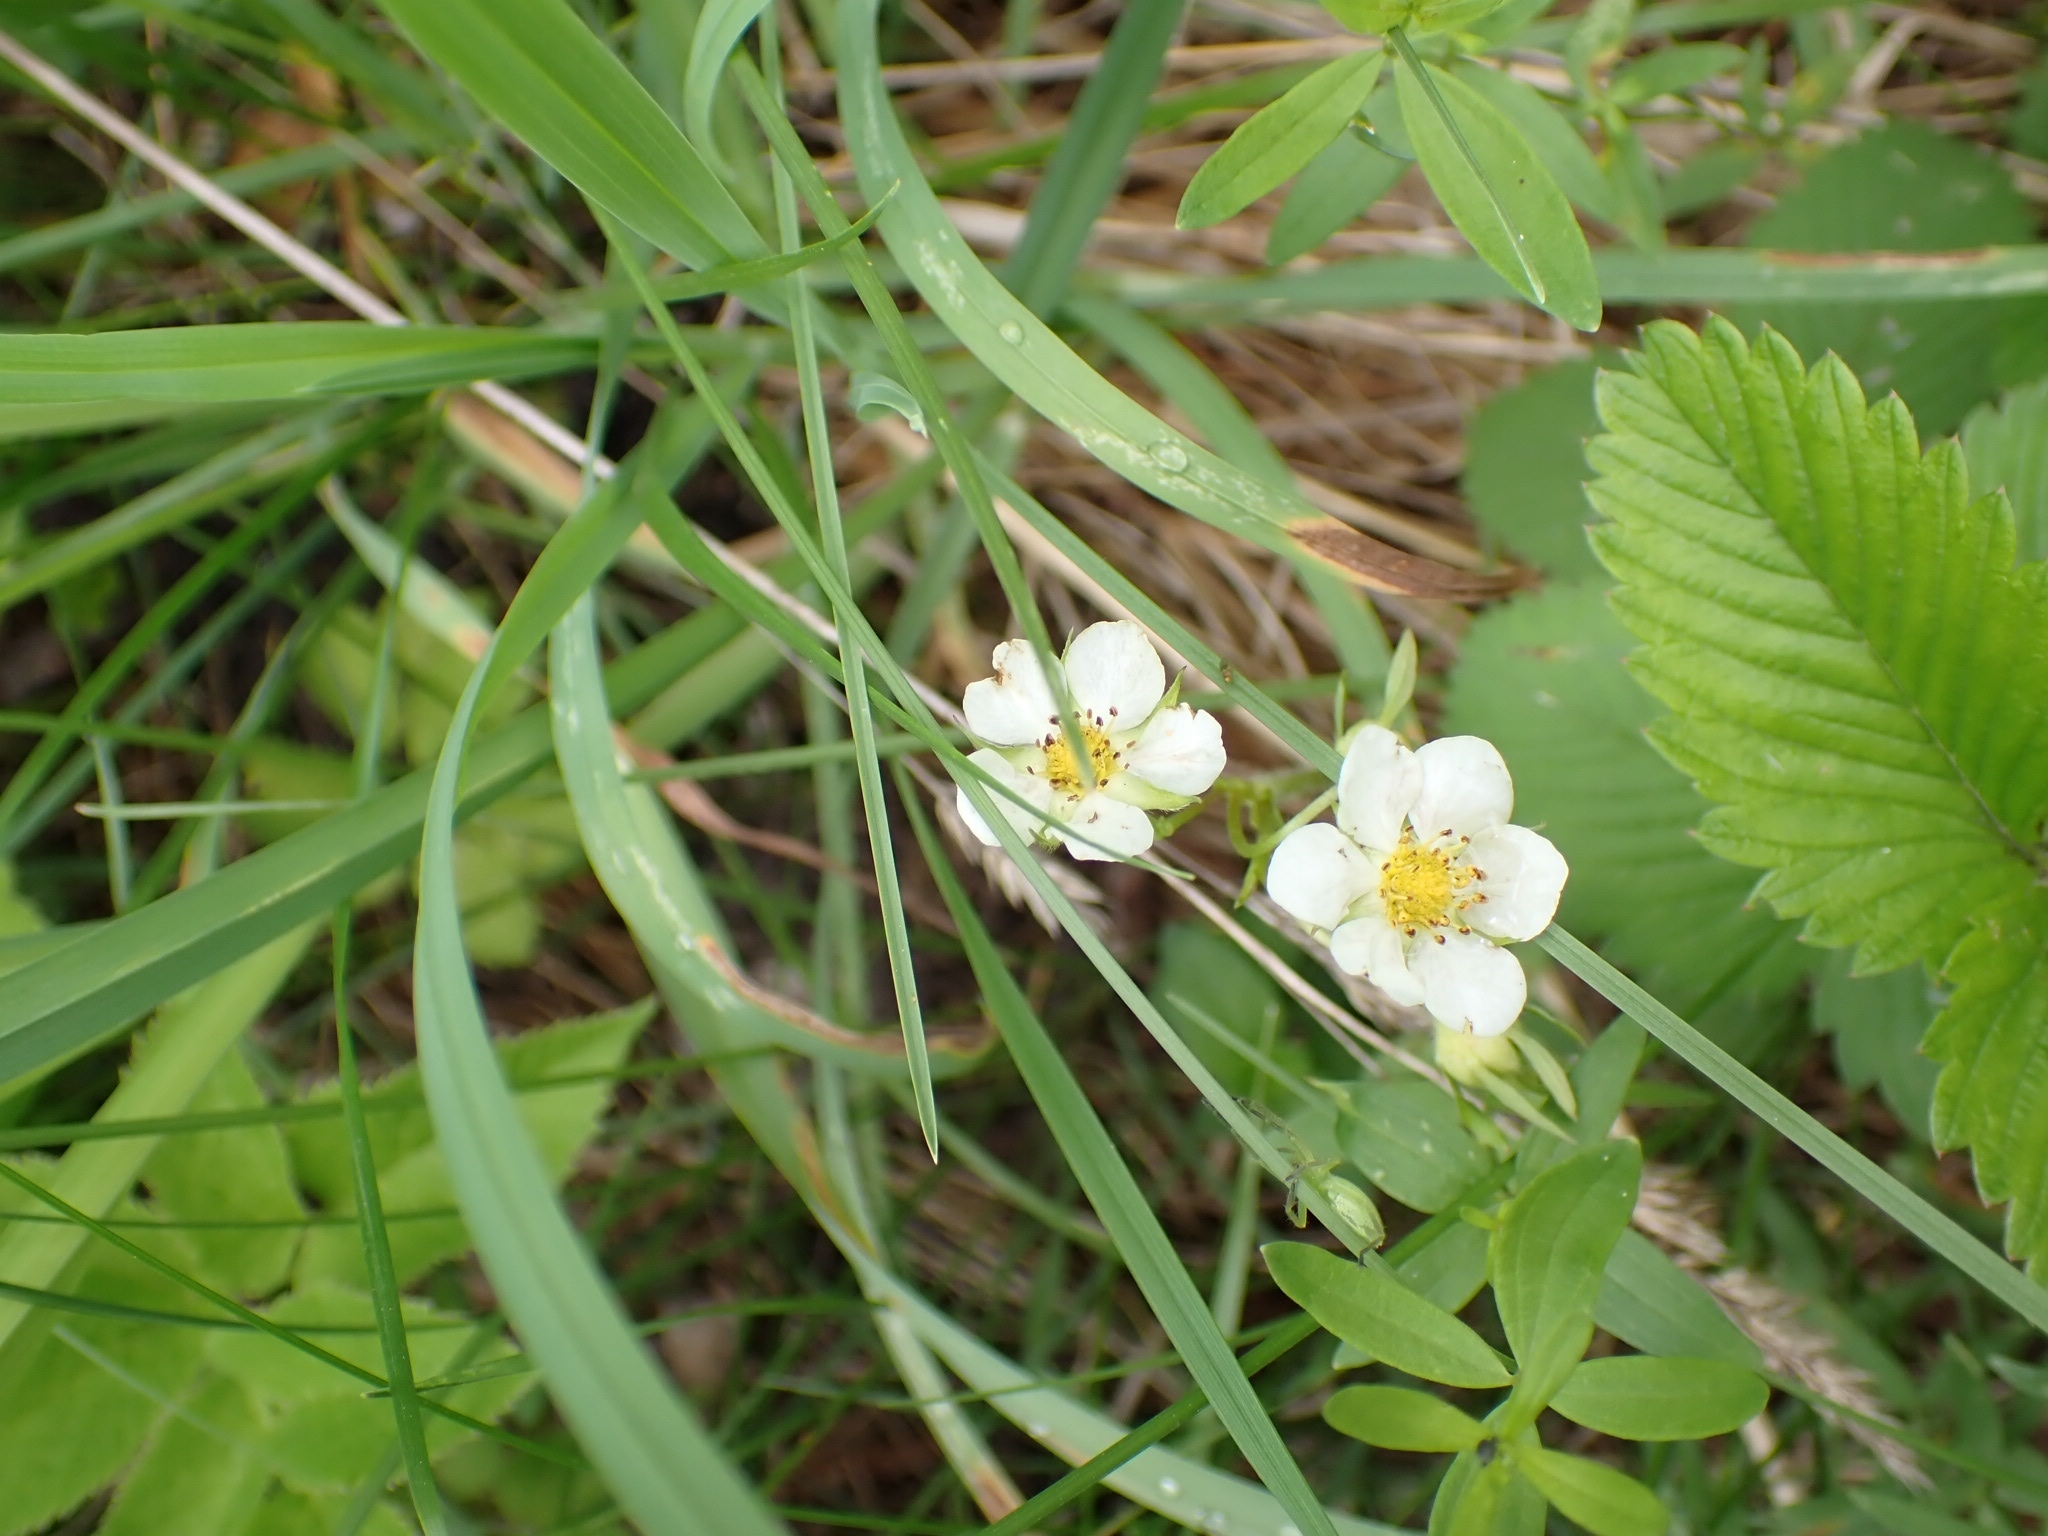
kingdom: Plantae
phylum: Tracheophyta
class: Magnoliopsida
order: Rosales
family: Rosaceae
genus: Fragaria
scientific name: Fragaria viridis
